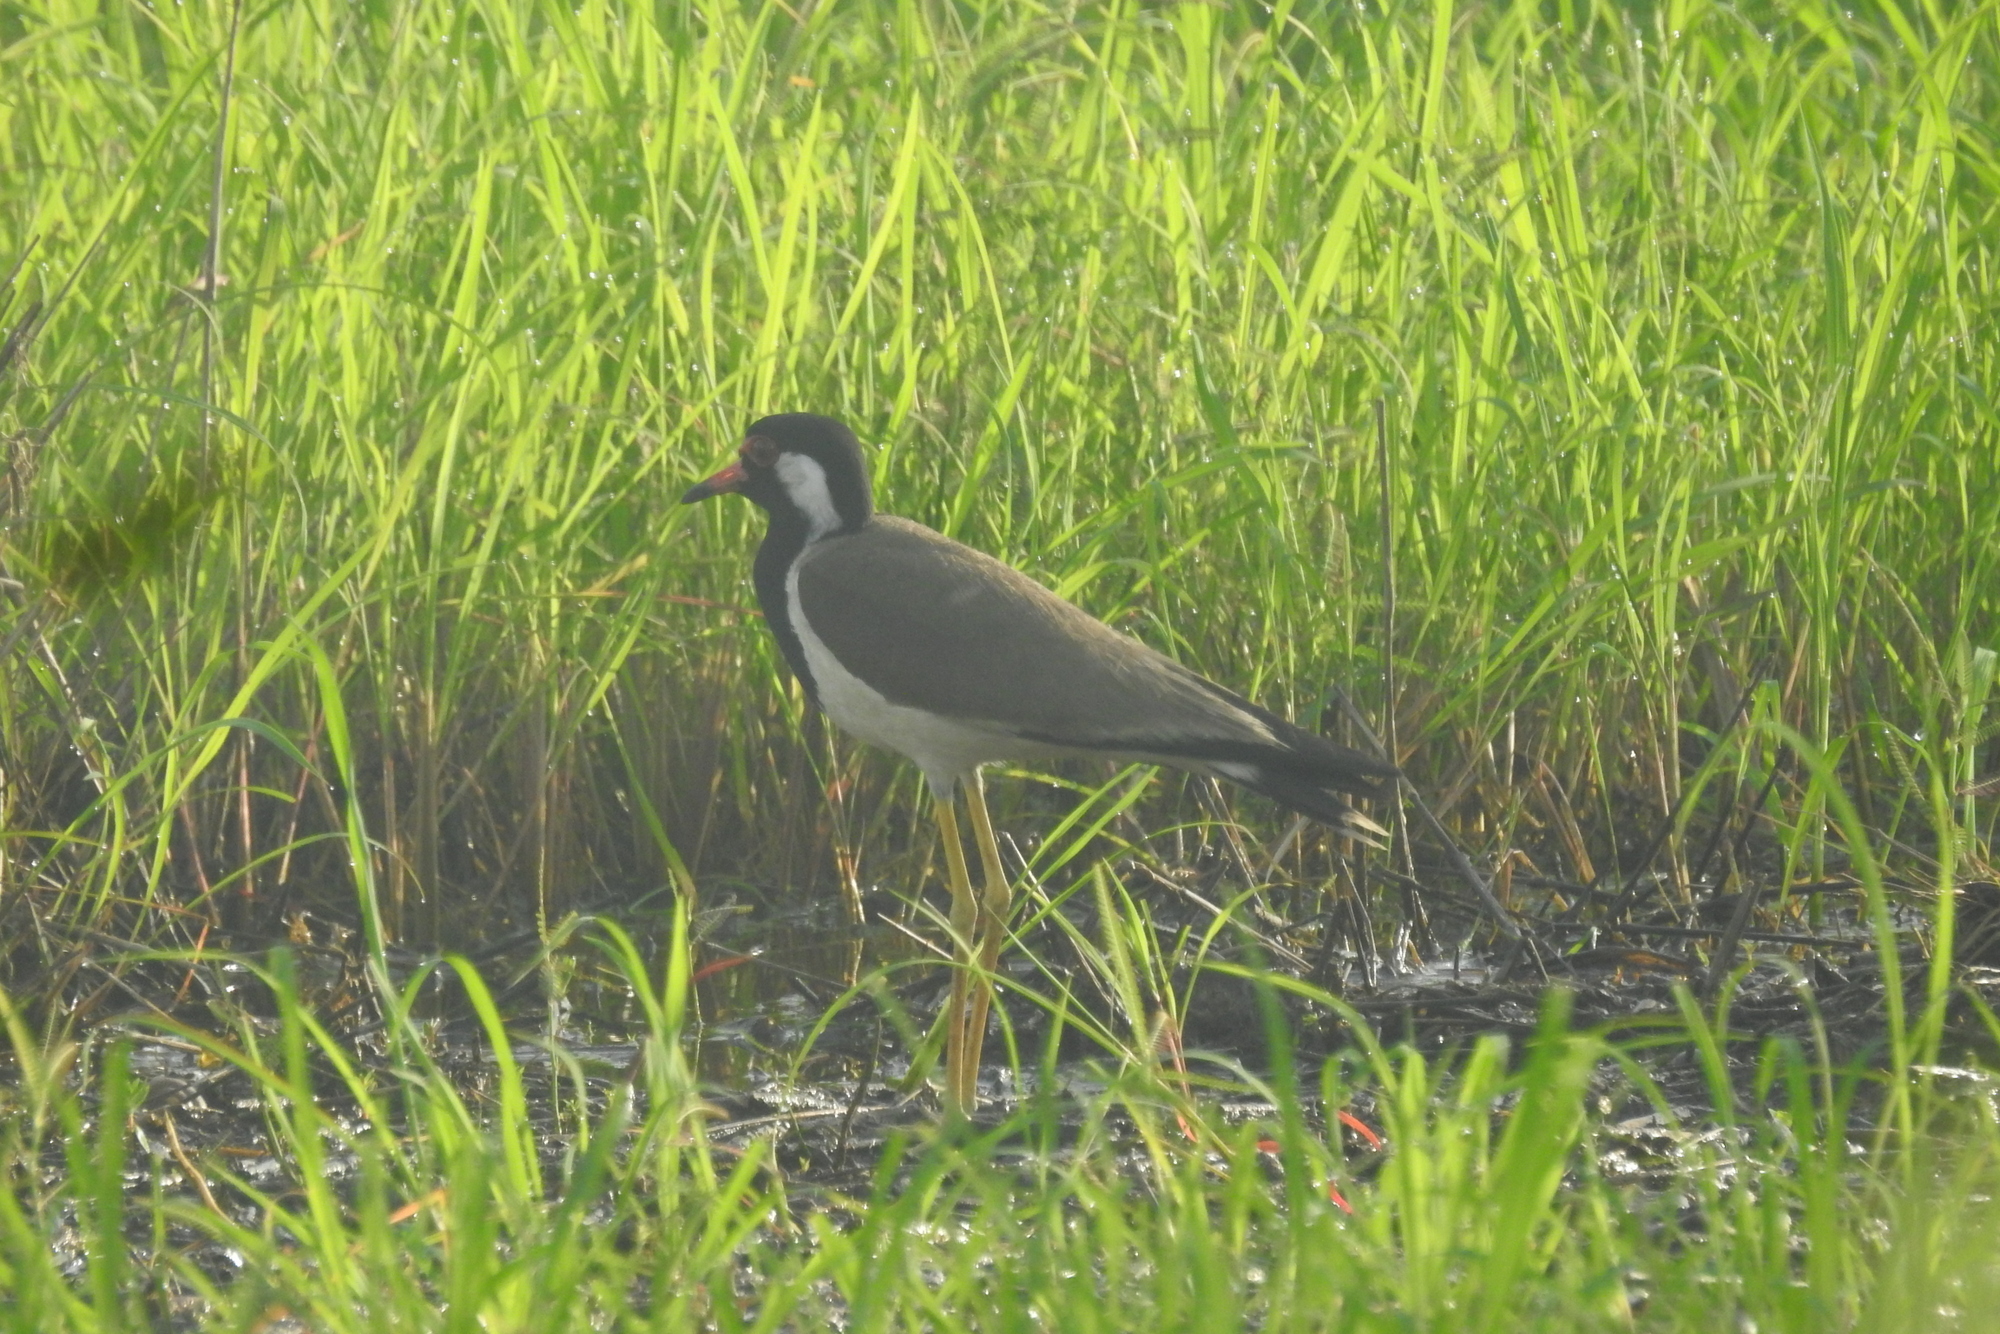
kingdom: Animalia
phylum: Chordata
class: Aves
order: Charadriiformes
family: Charadriidae
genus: Vanellus
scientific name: Vanellus indicus
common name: Red-wattled lapwing
